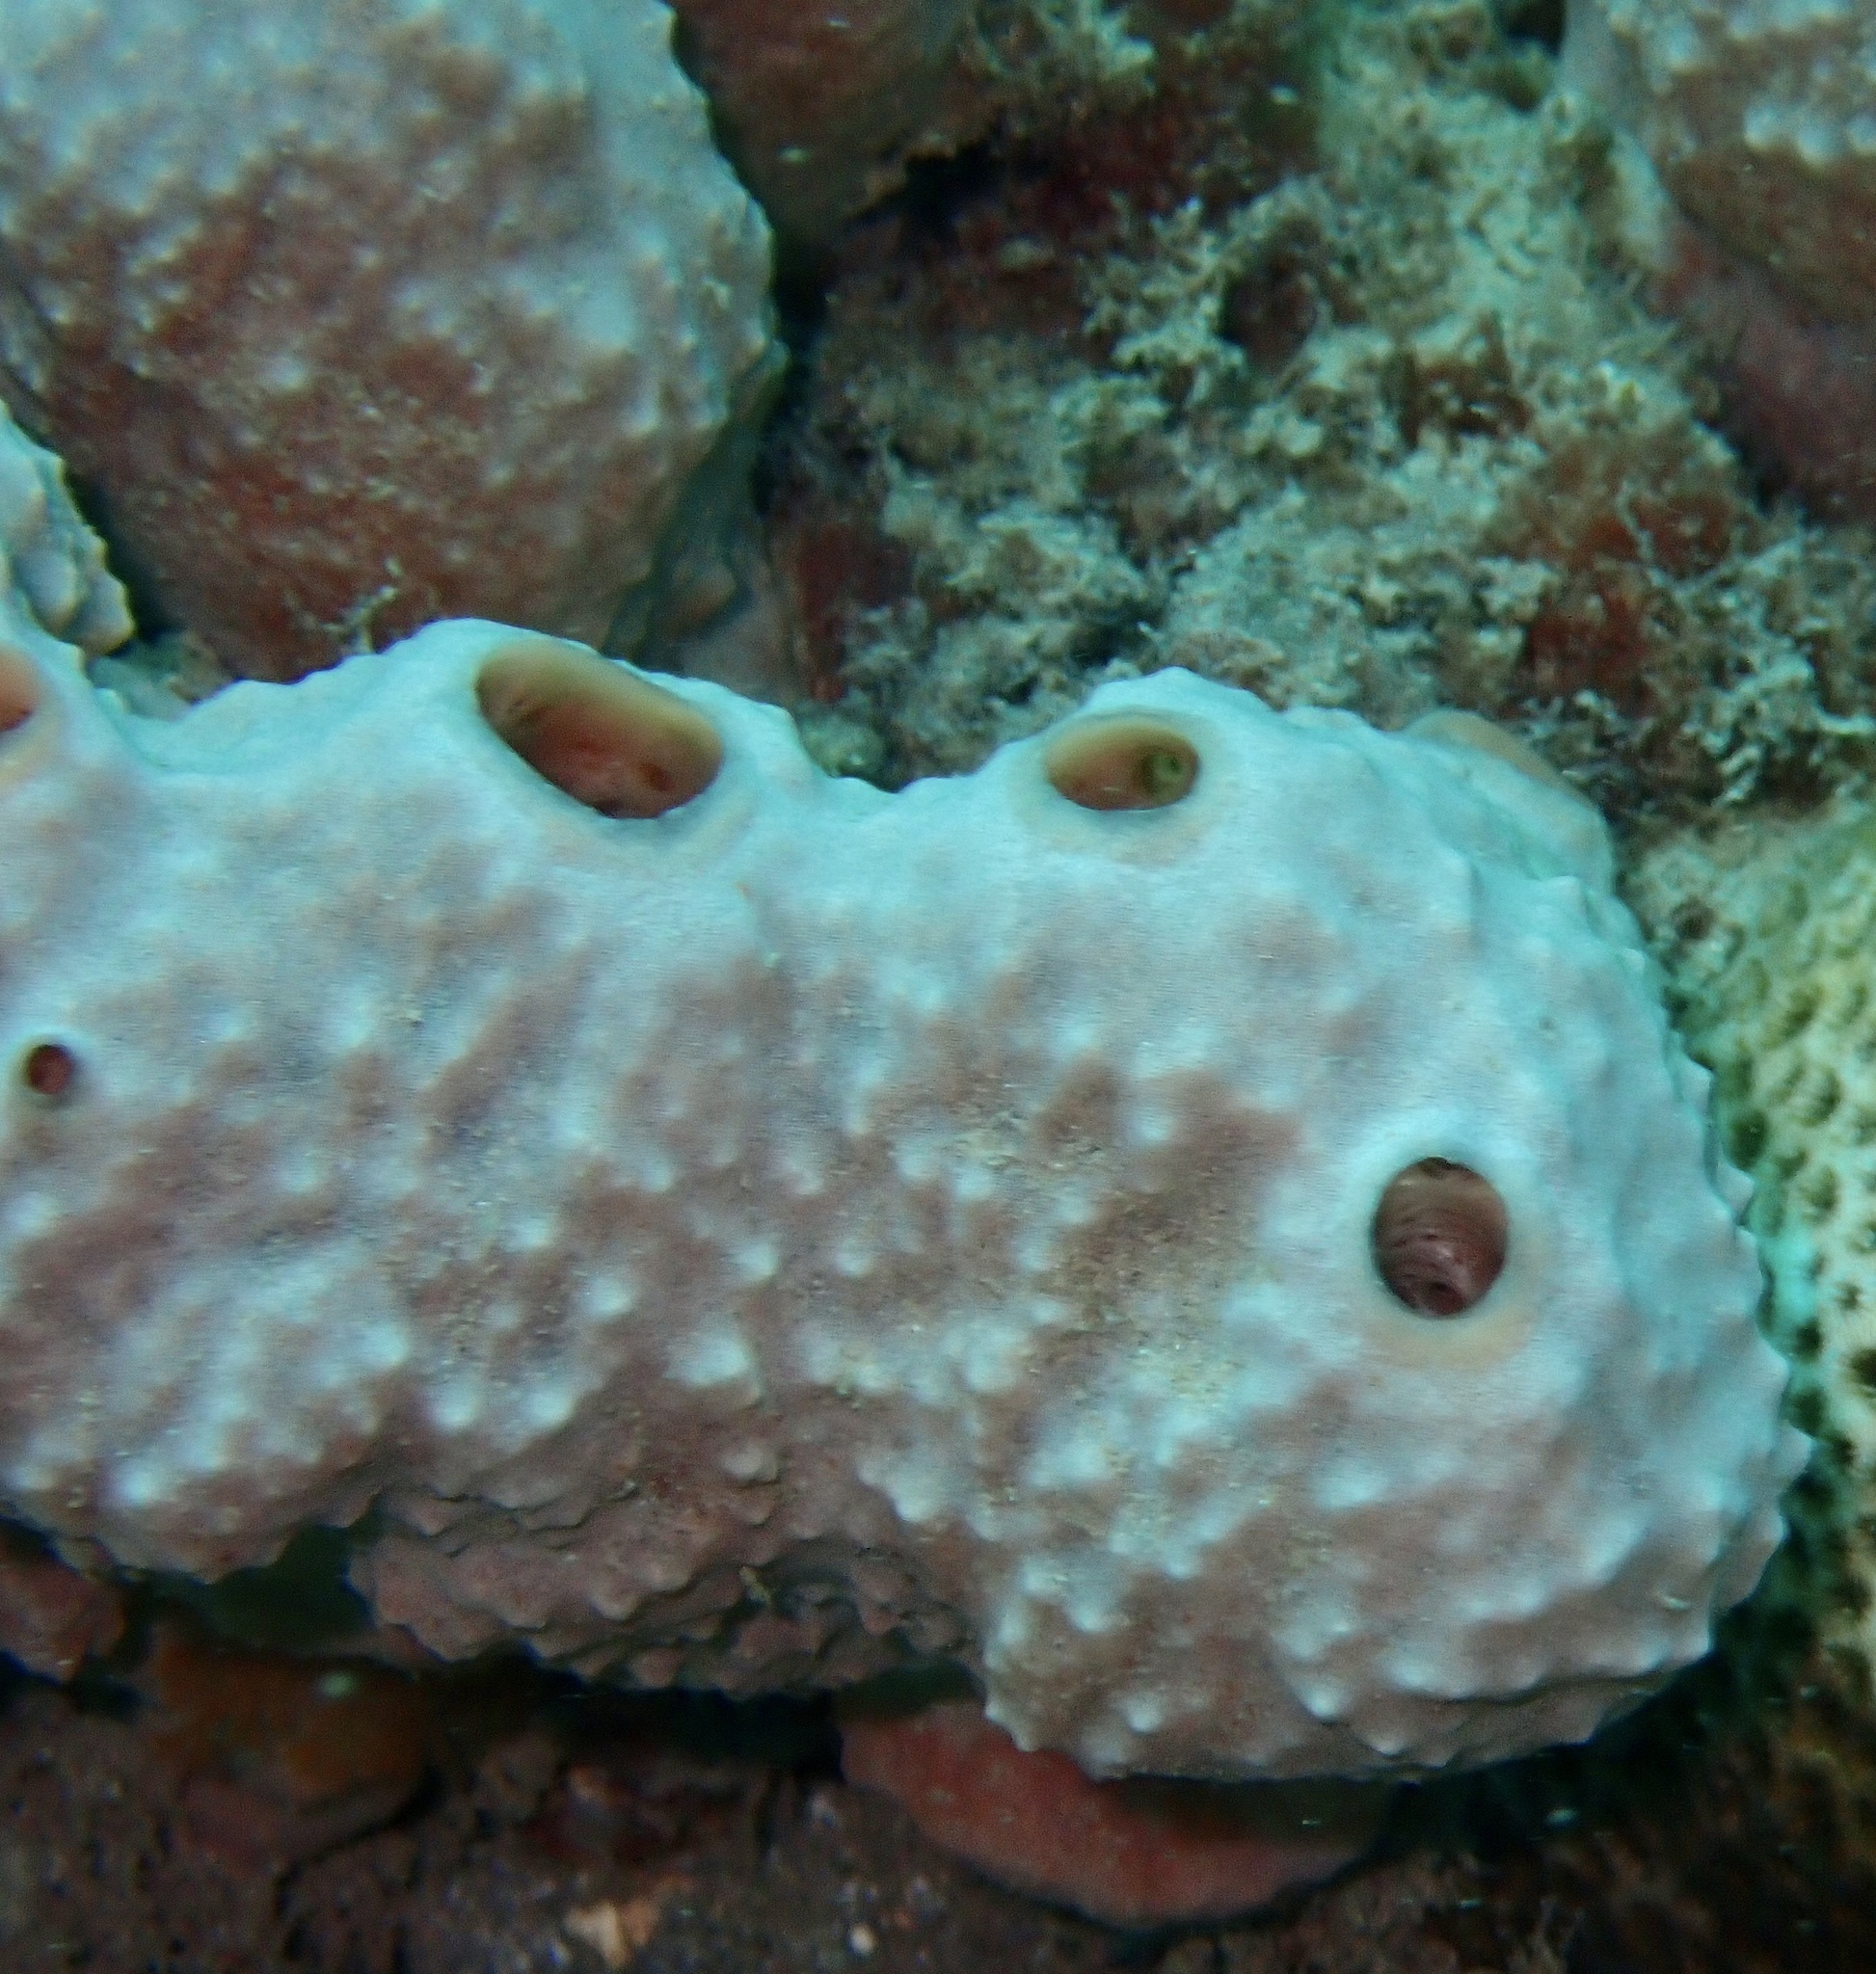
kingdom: Animalia
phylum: Porifera
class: Demospongiae
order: Poecilosclerida
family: Desmacididae
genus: Desmapsamma
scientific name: Desmapsamma anchorata
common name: Lumpy overgrowing sponge
